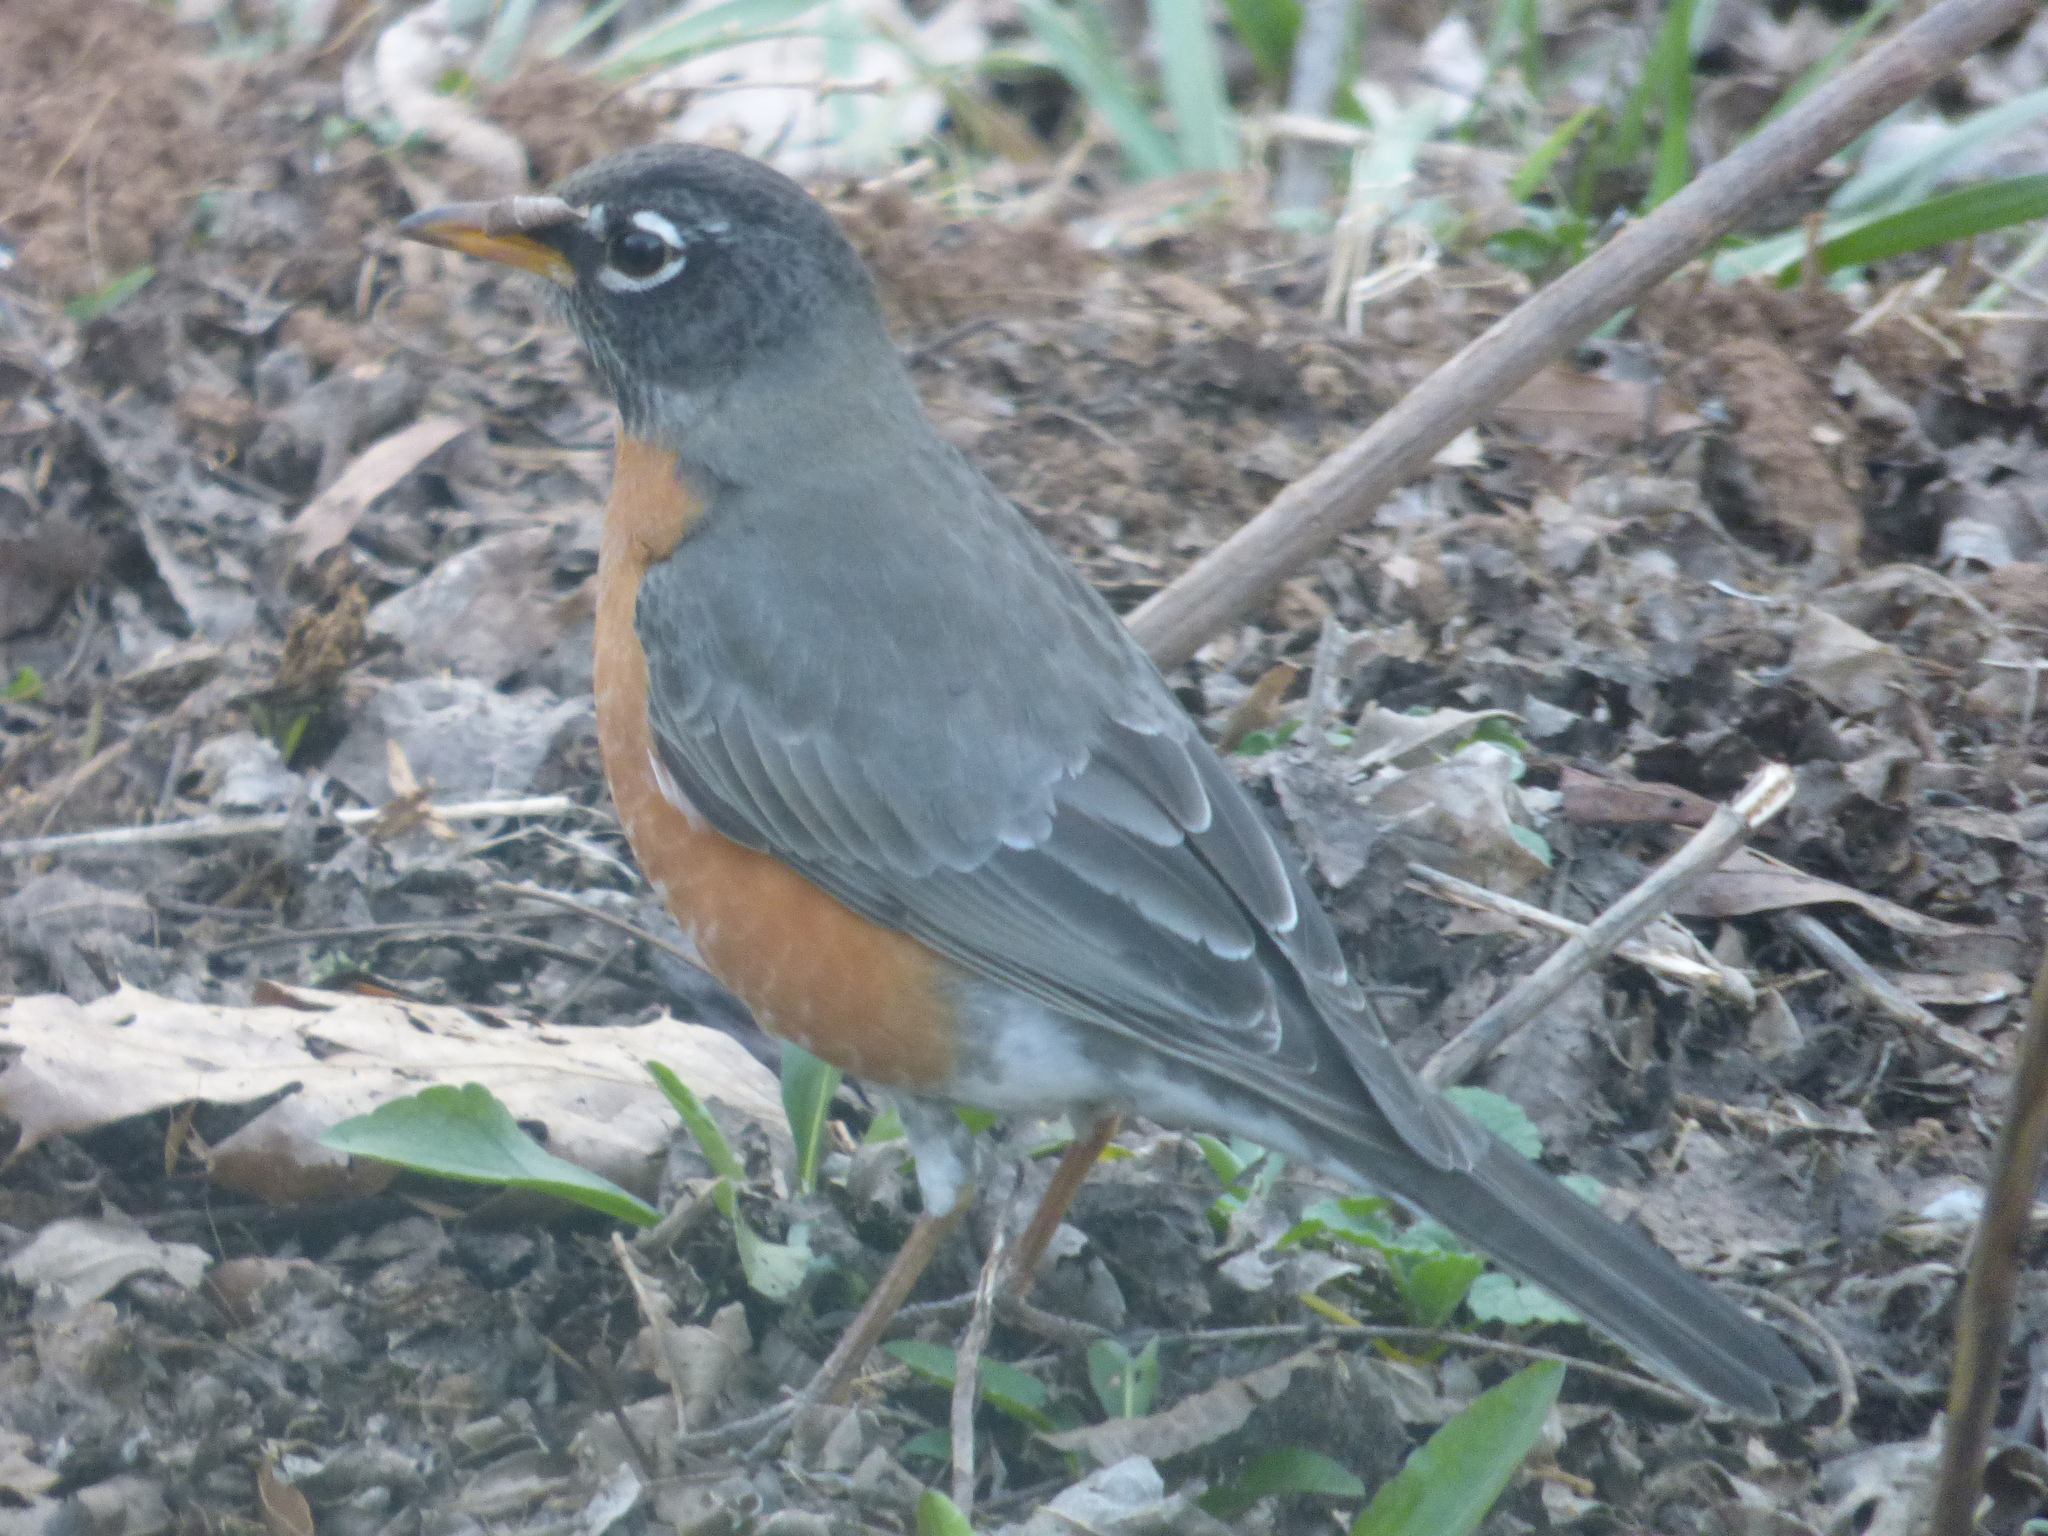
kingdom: Animalia
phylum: Chordata
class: Aves
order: Passeriformes
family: Turdidae
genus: Turdus
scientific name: Turdus migratorius
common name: American robin
